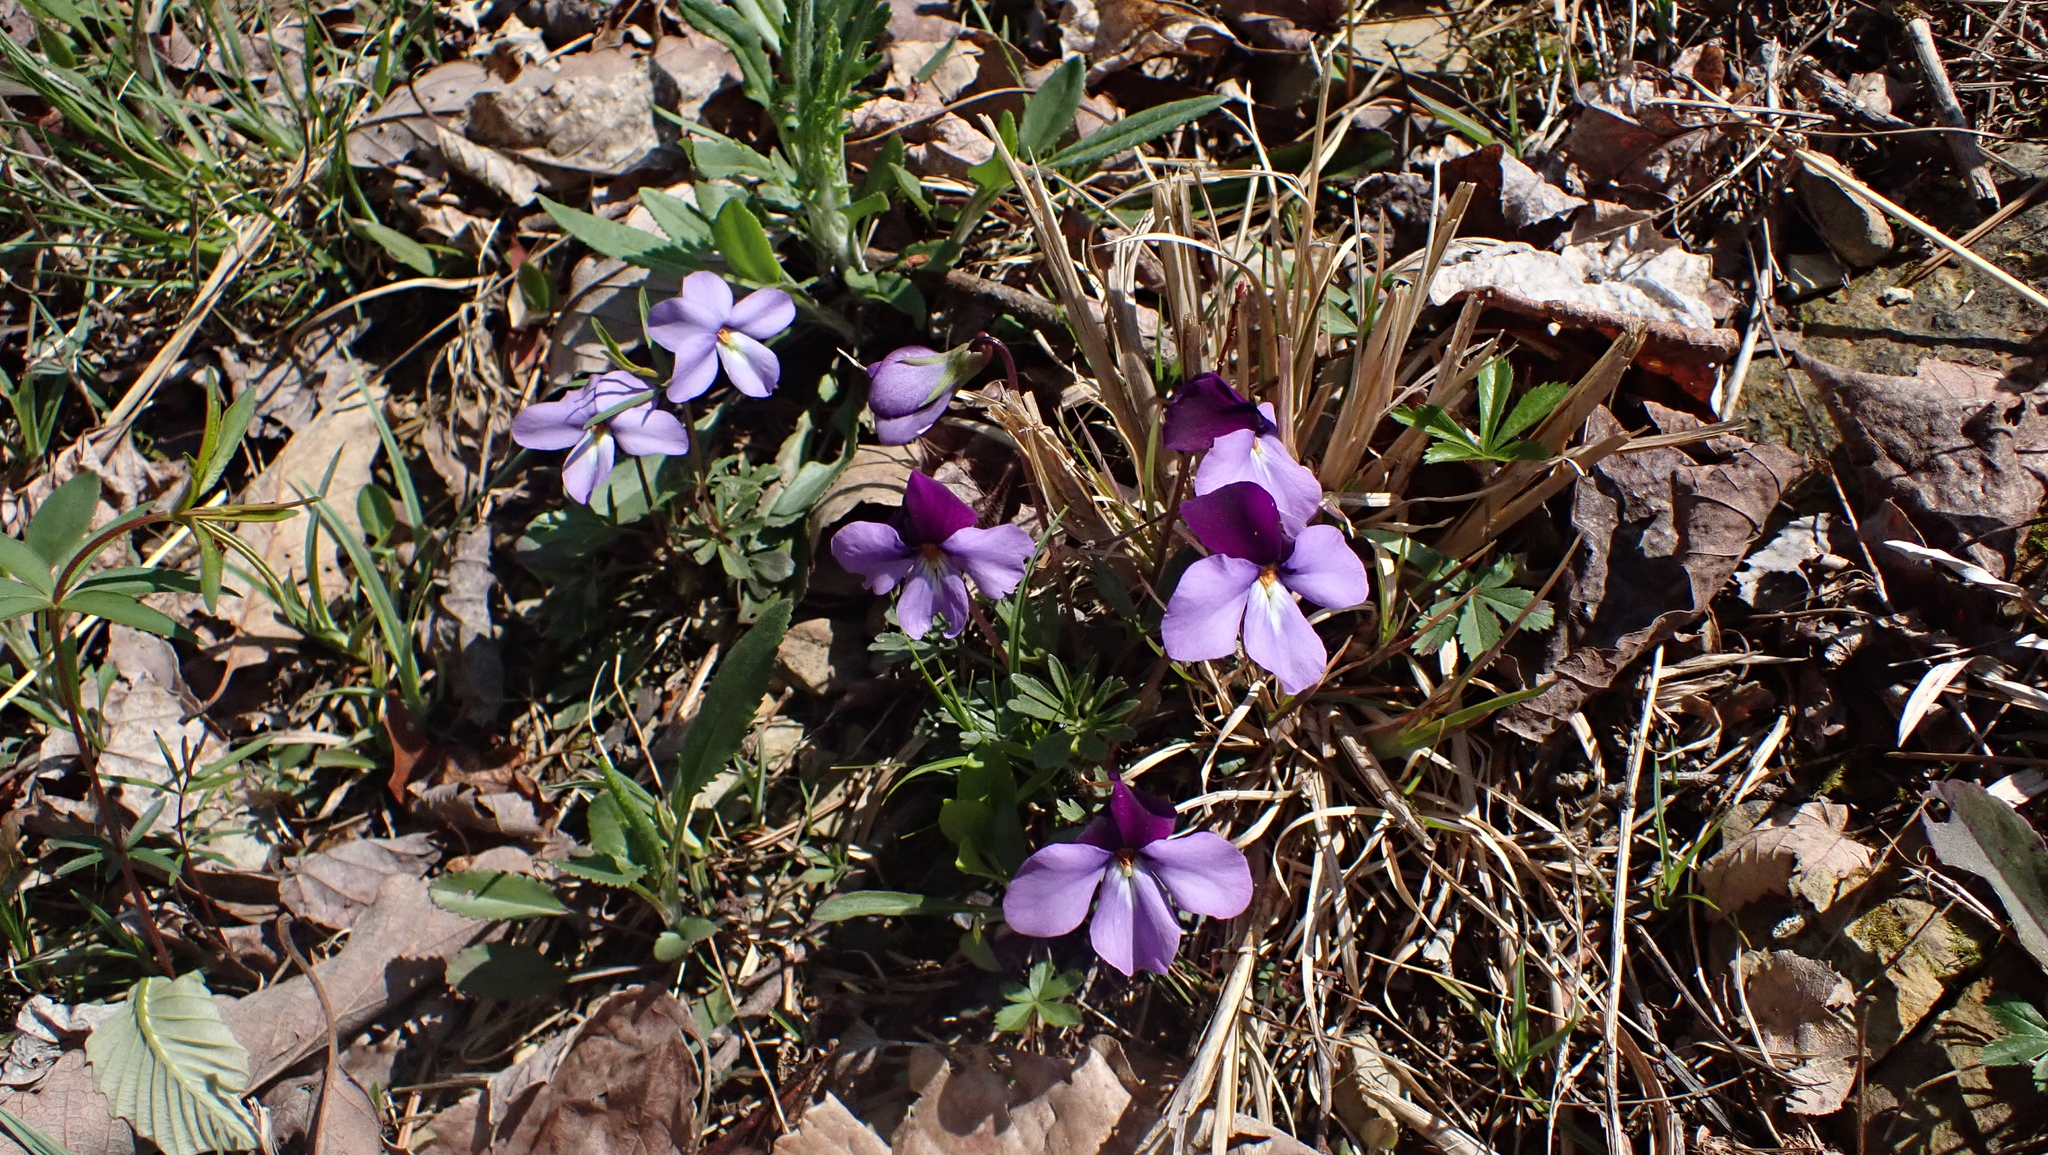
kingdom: Plantae
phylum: Tracheophyta
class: Magnoliopsida
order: Malpighiales
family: Violaceae
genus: Viola
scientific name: Viola pedata
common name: Pansy violet
